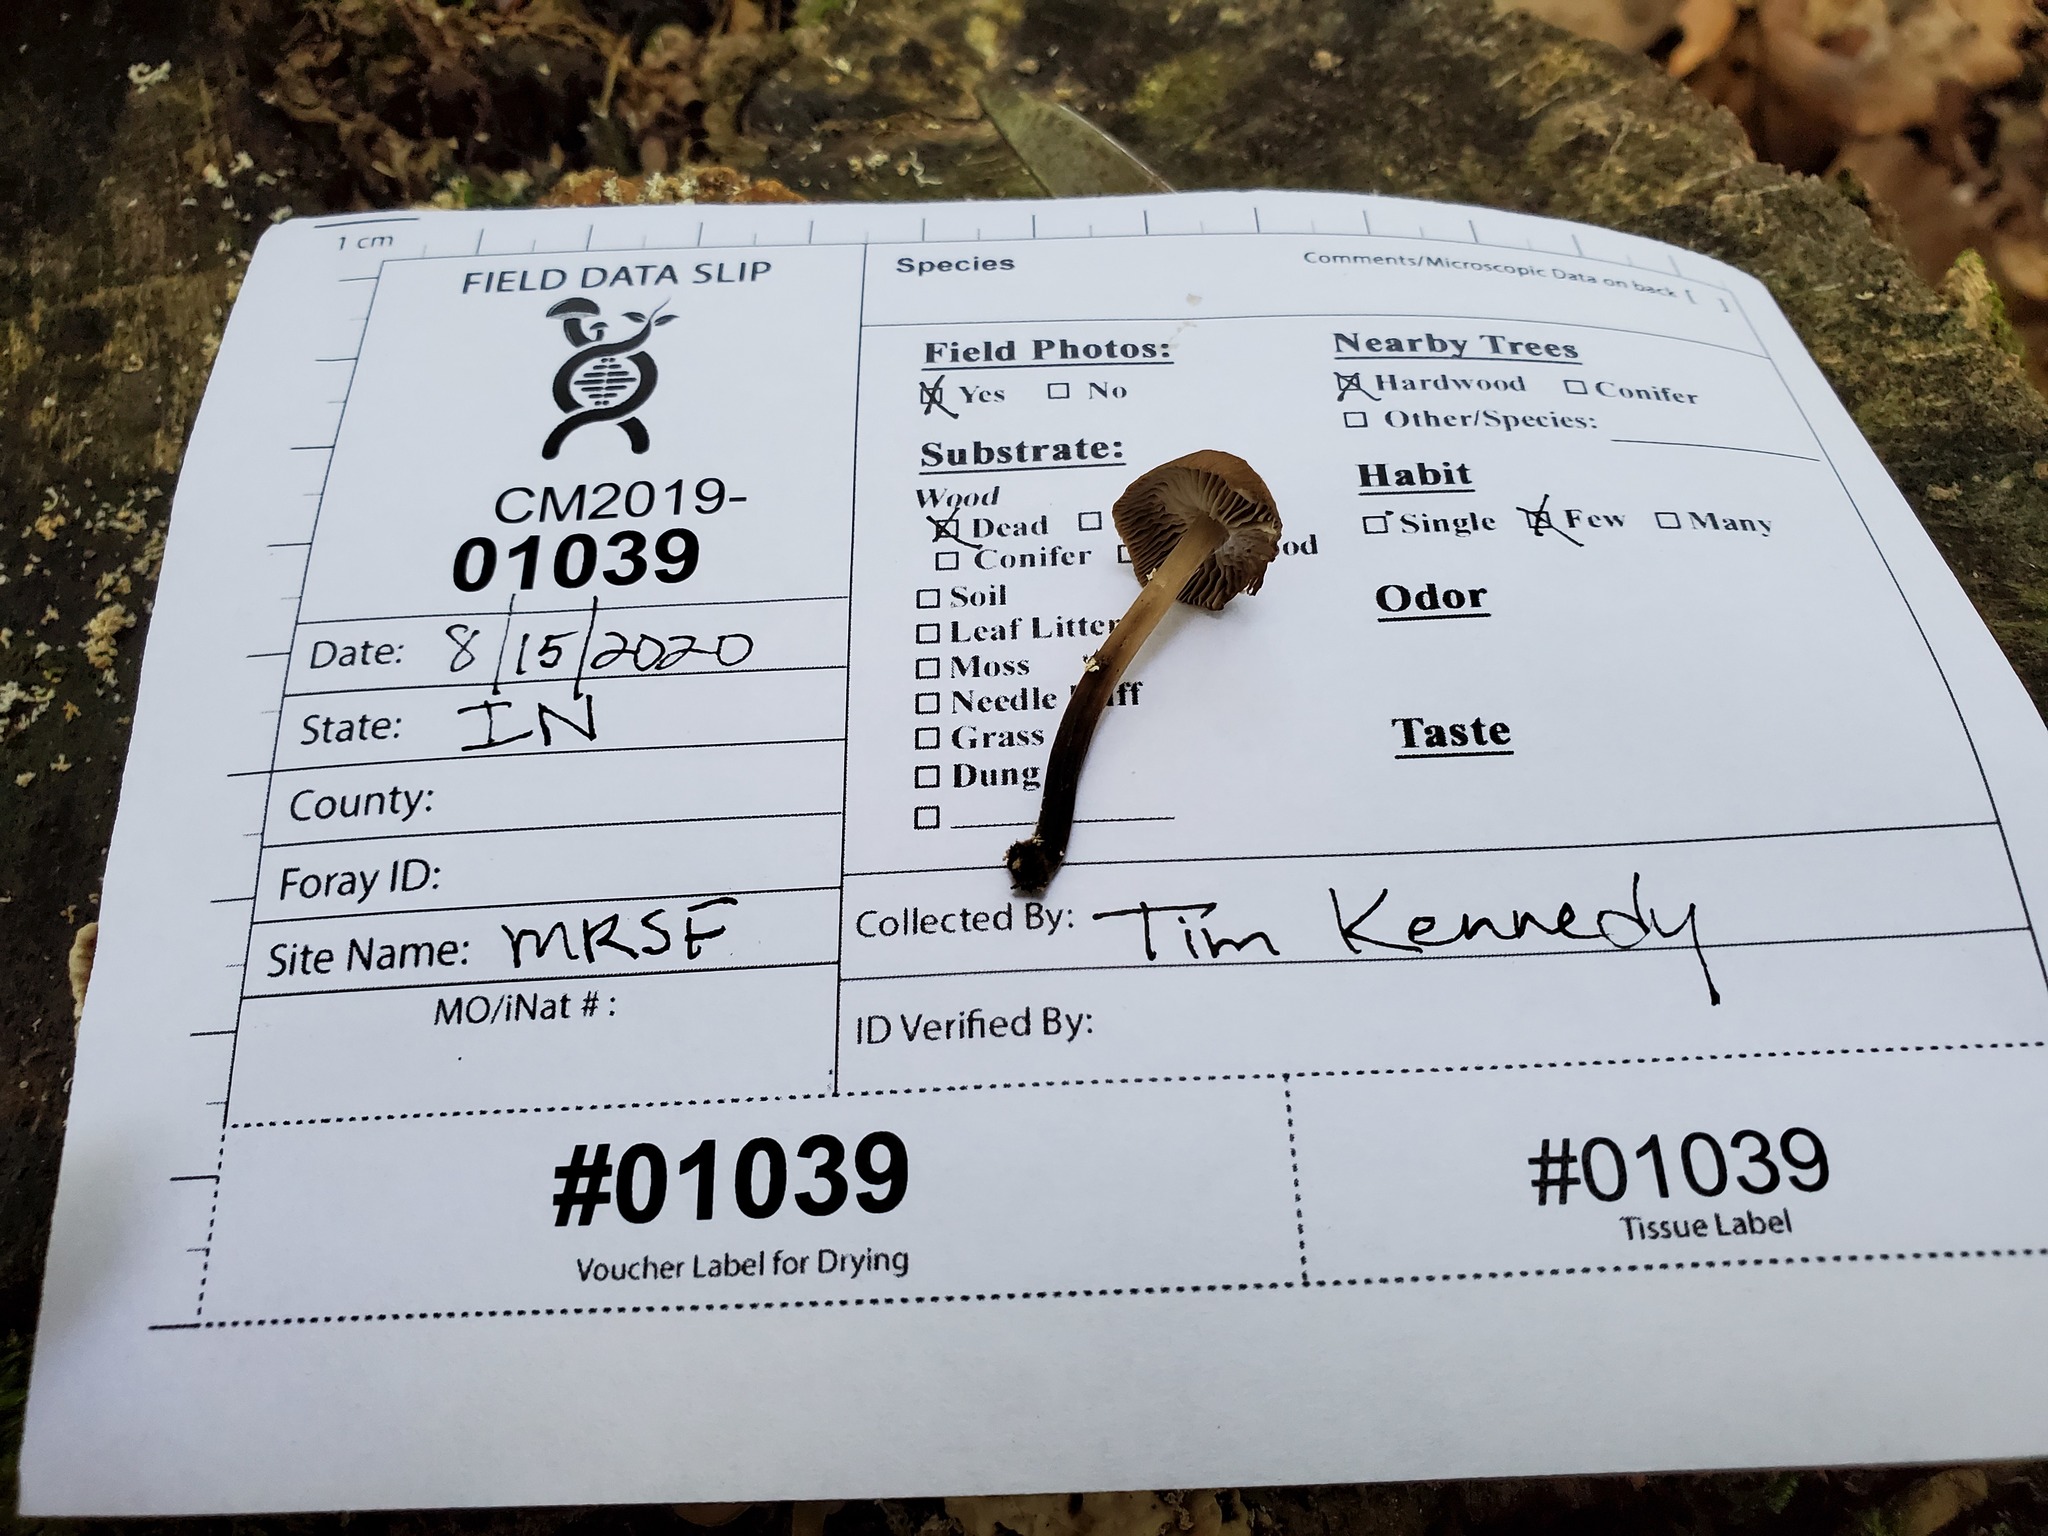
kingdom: Fungi
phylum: Basidiomycota
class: Agaricomycetes
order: Agaricales
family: Omphalotaceae
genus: Collybiopsis
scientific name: Collybiopsis dichroa
